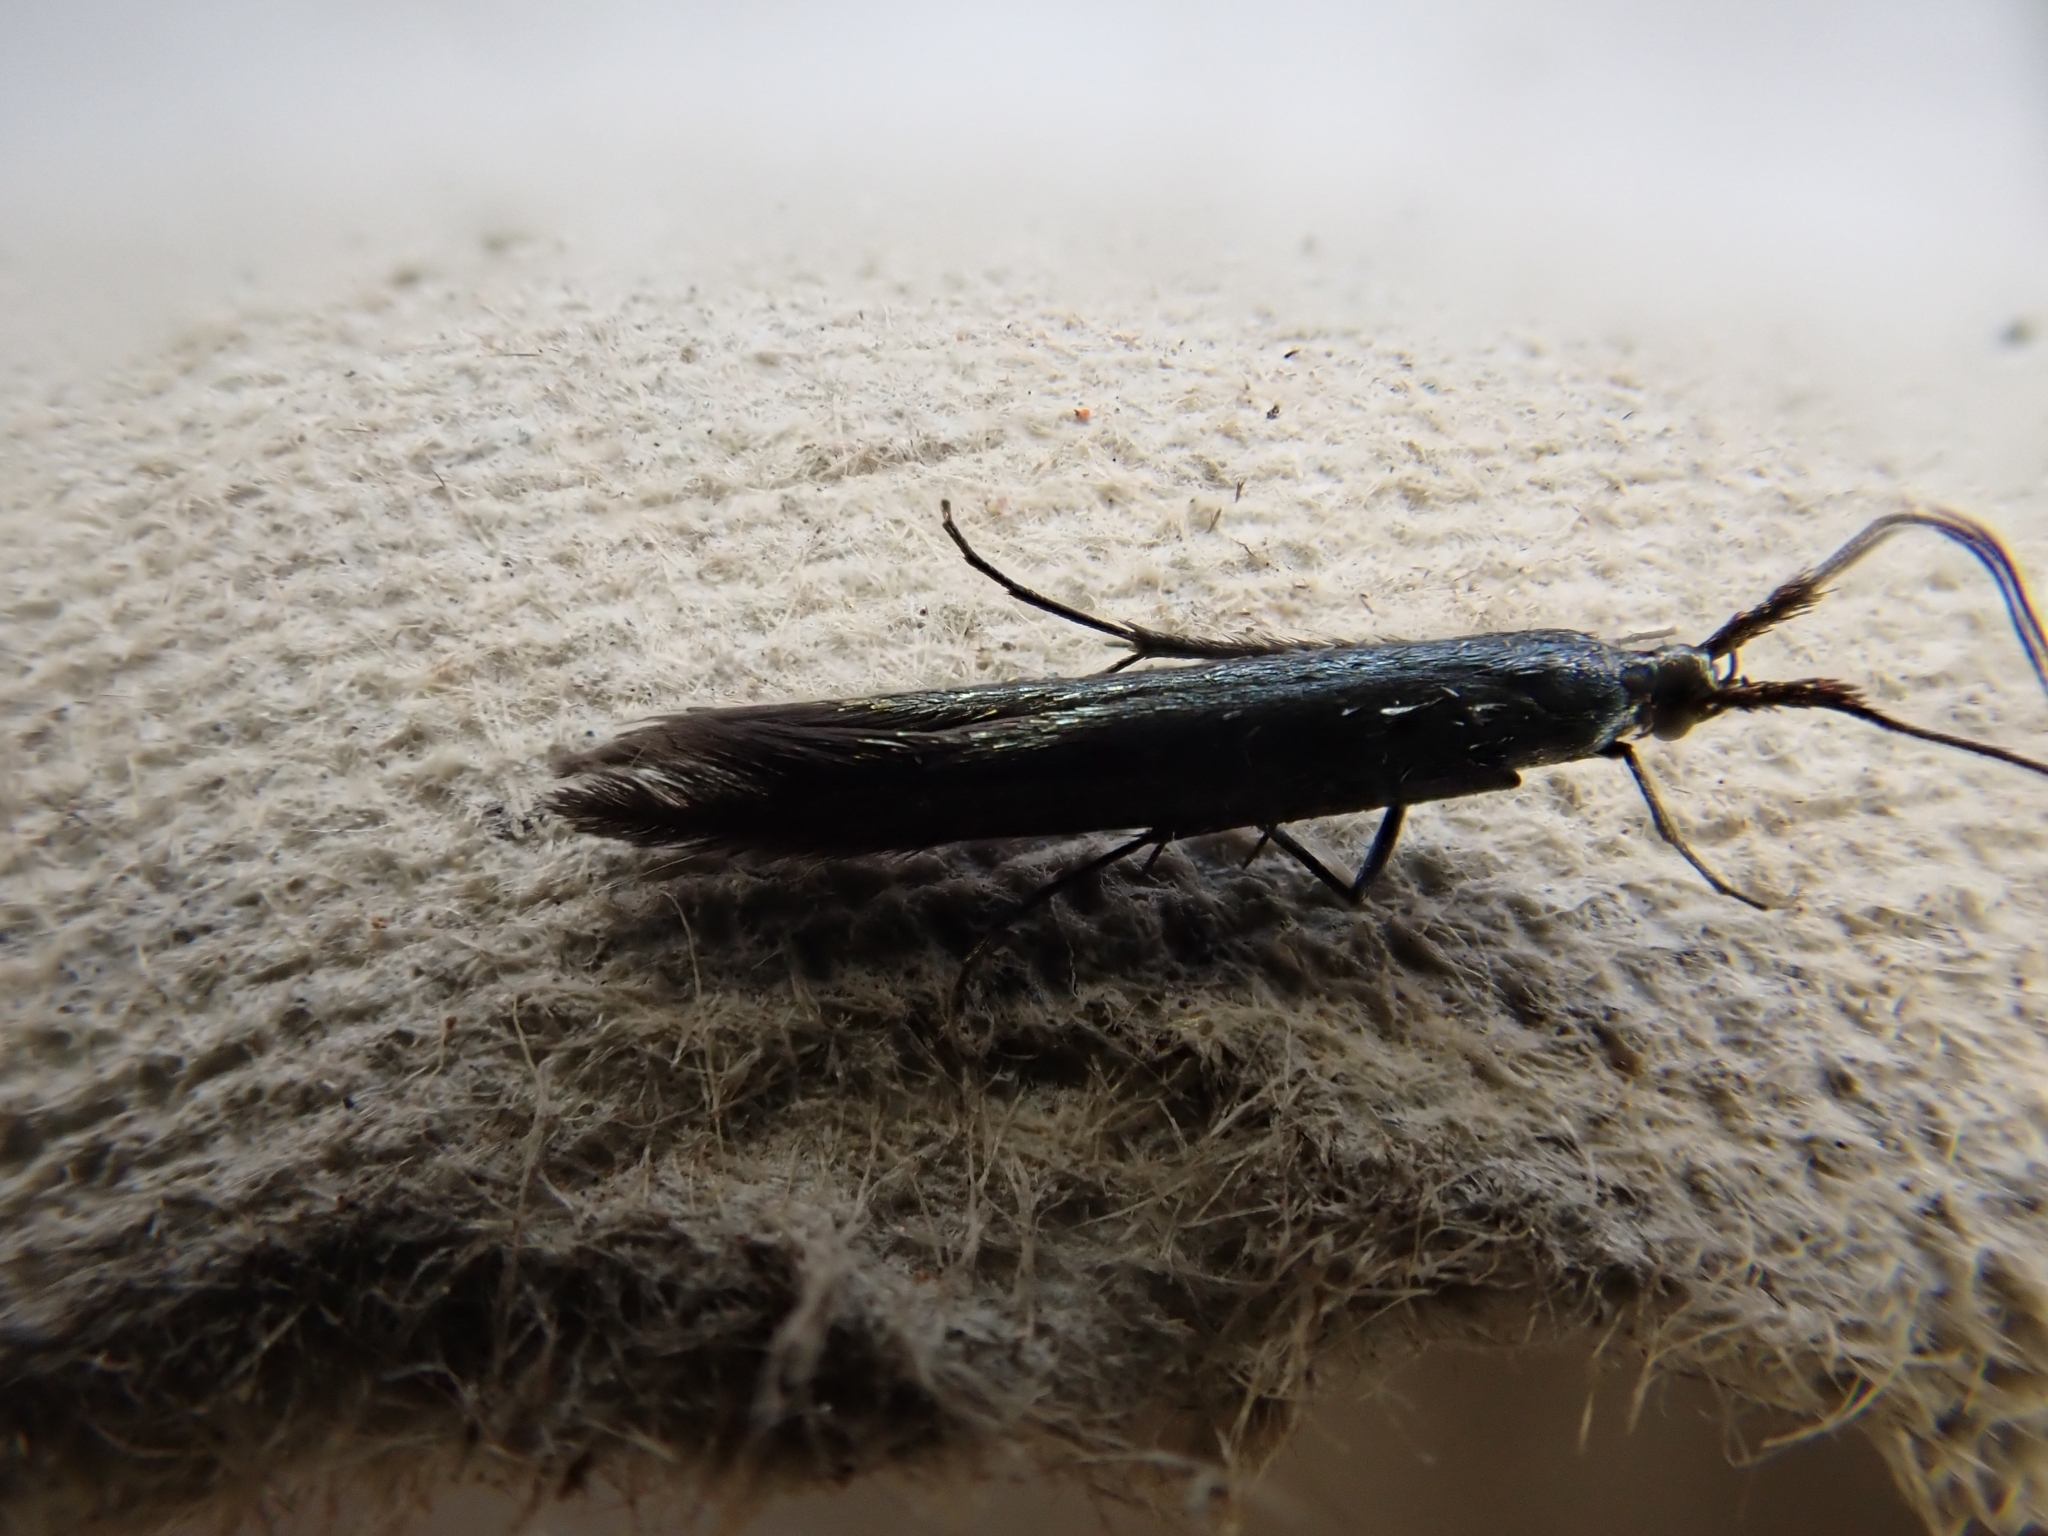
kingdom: Animalia
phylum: Arthropoda
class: Insecta
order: Lepidoptera
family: Coleophoridae
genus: Coleophora
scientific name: Coleophora deauratella
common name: Red-clover case-bearer
